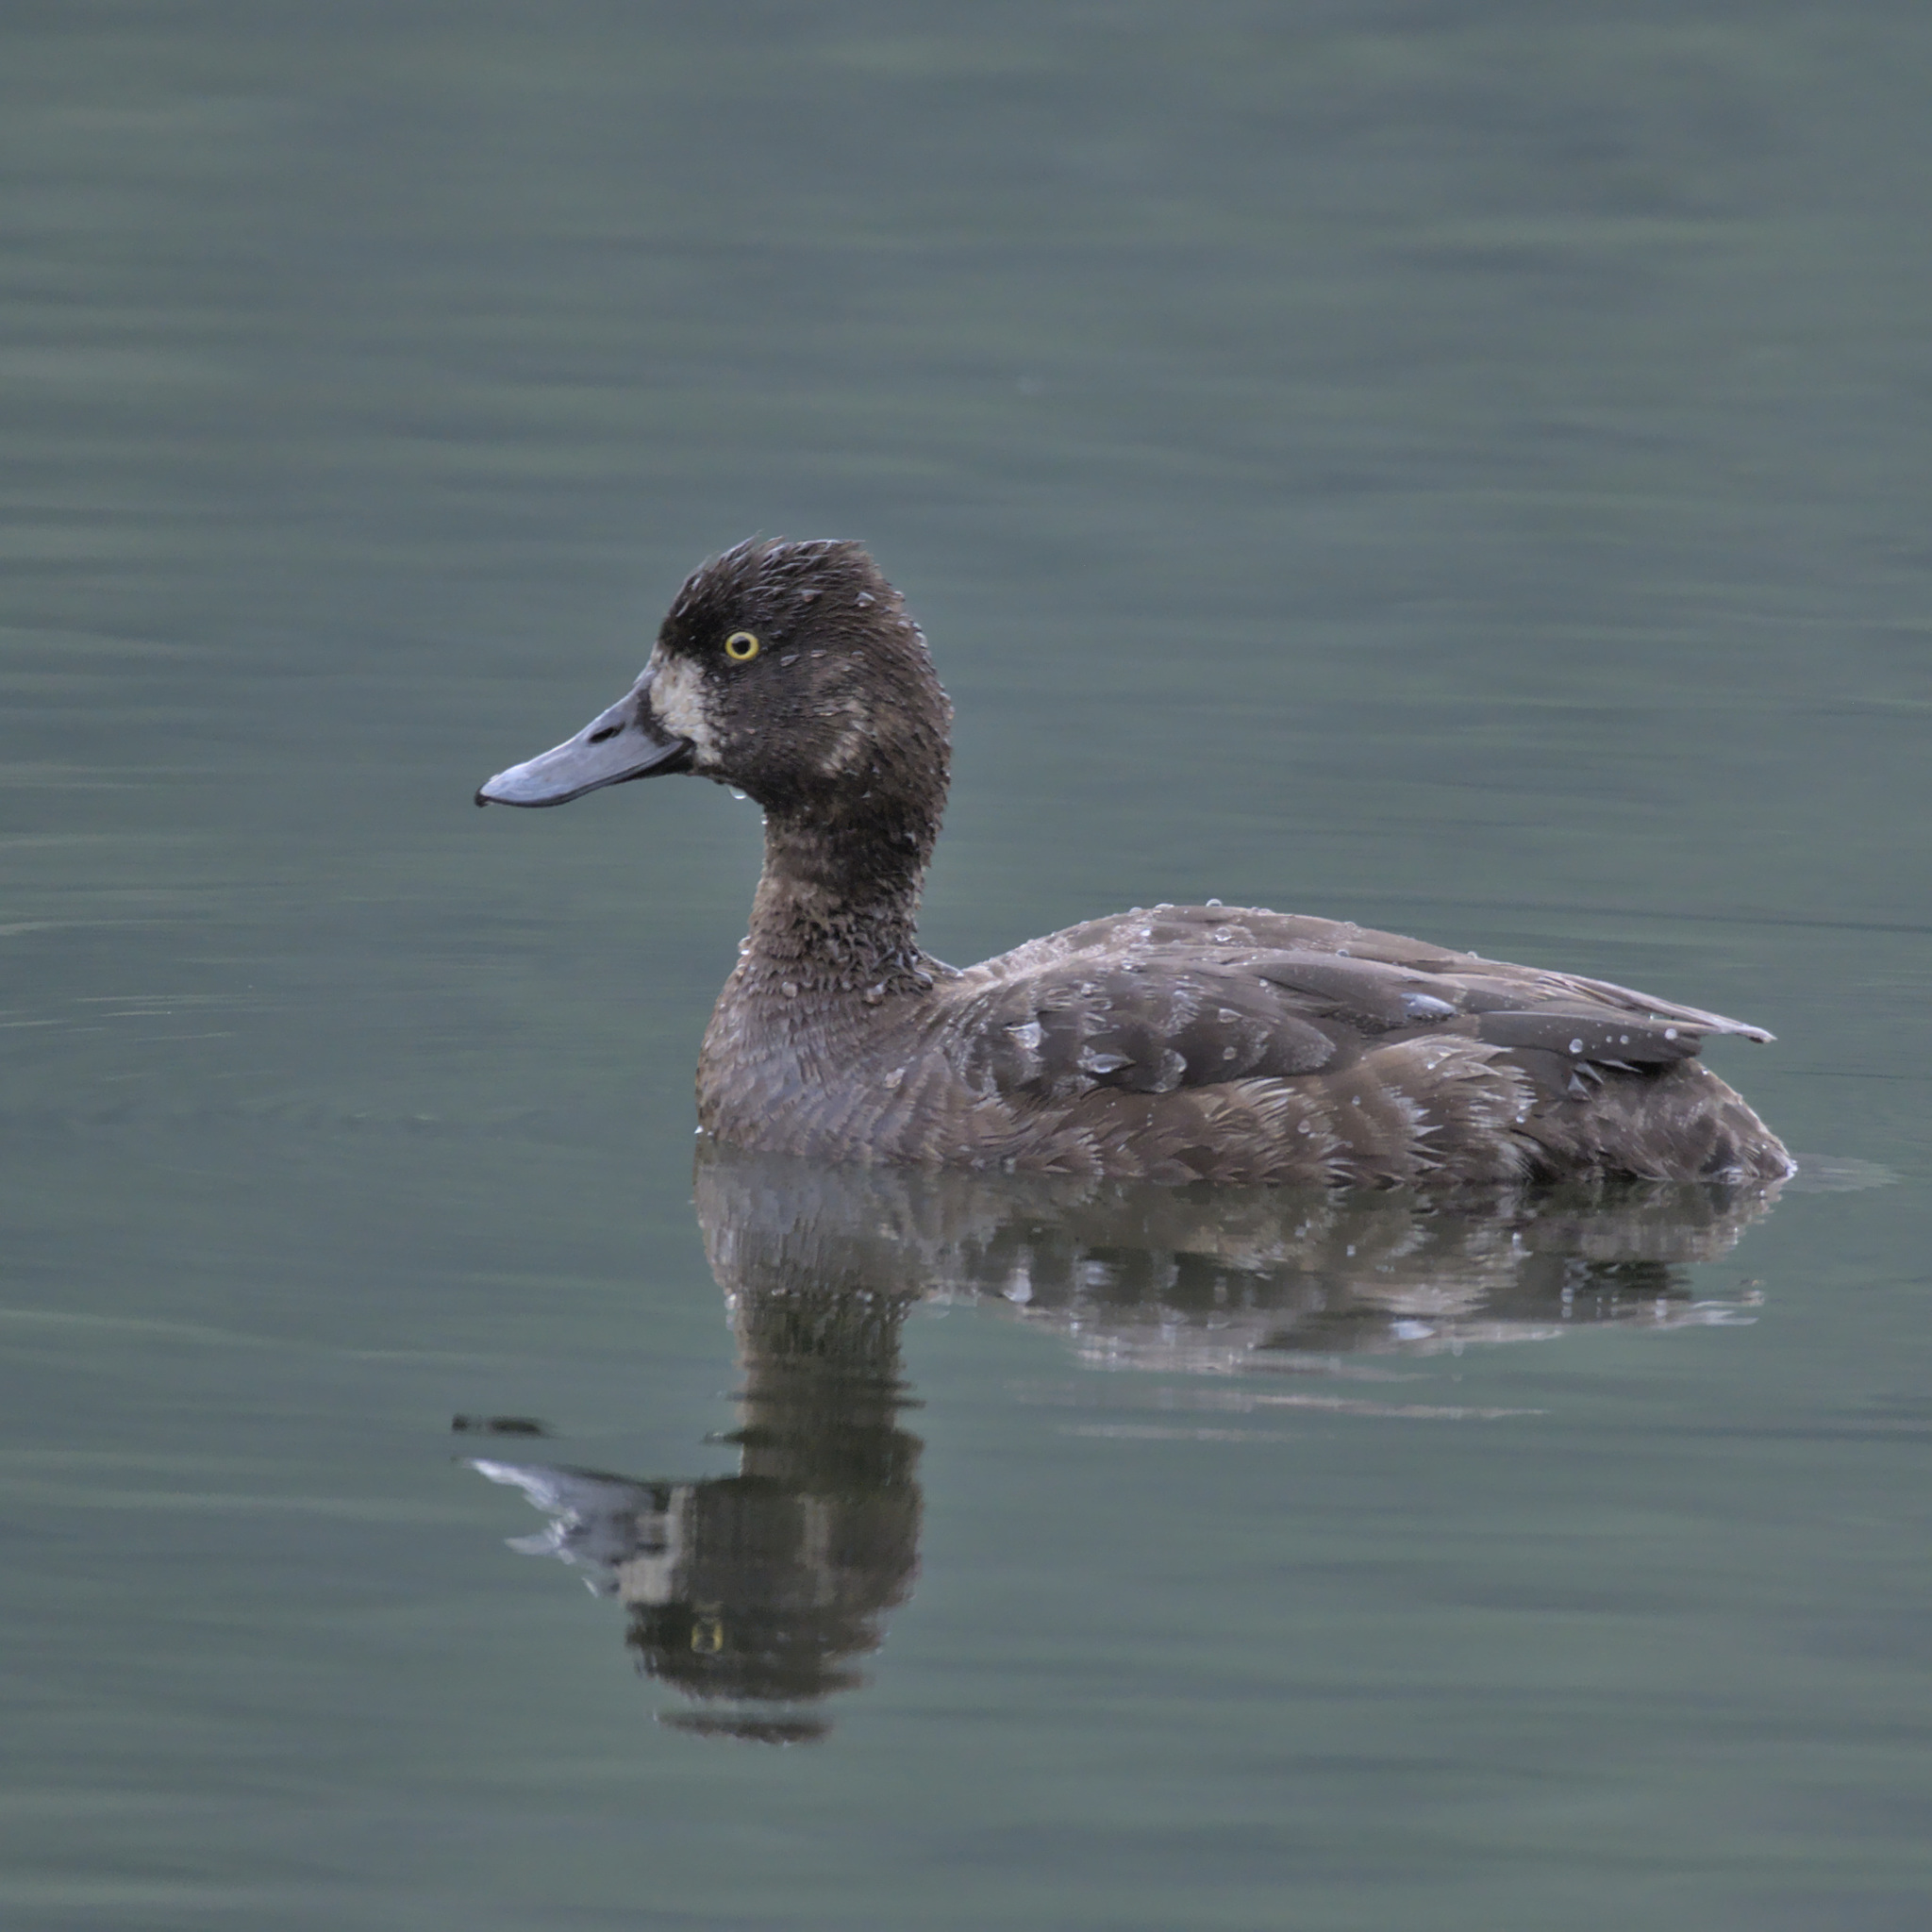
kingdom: Animalia
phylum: Chordata
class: Aves
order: Anseriformes
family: Anatidae
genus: Aythya
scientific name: Aythya affinis
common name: Lesser scaup
